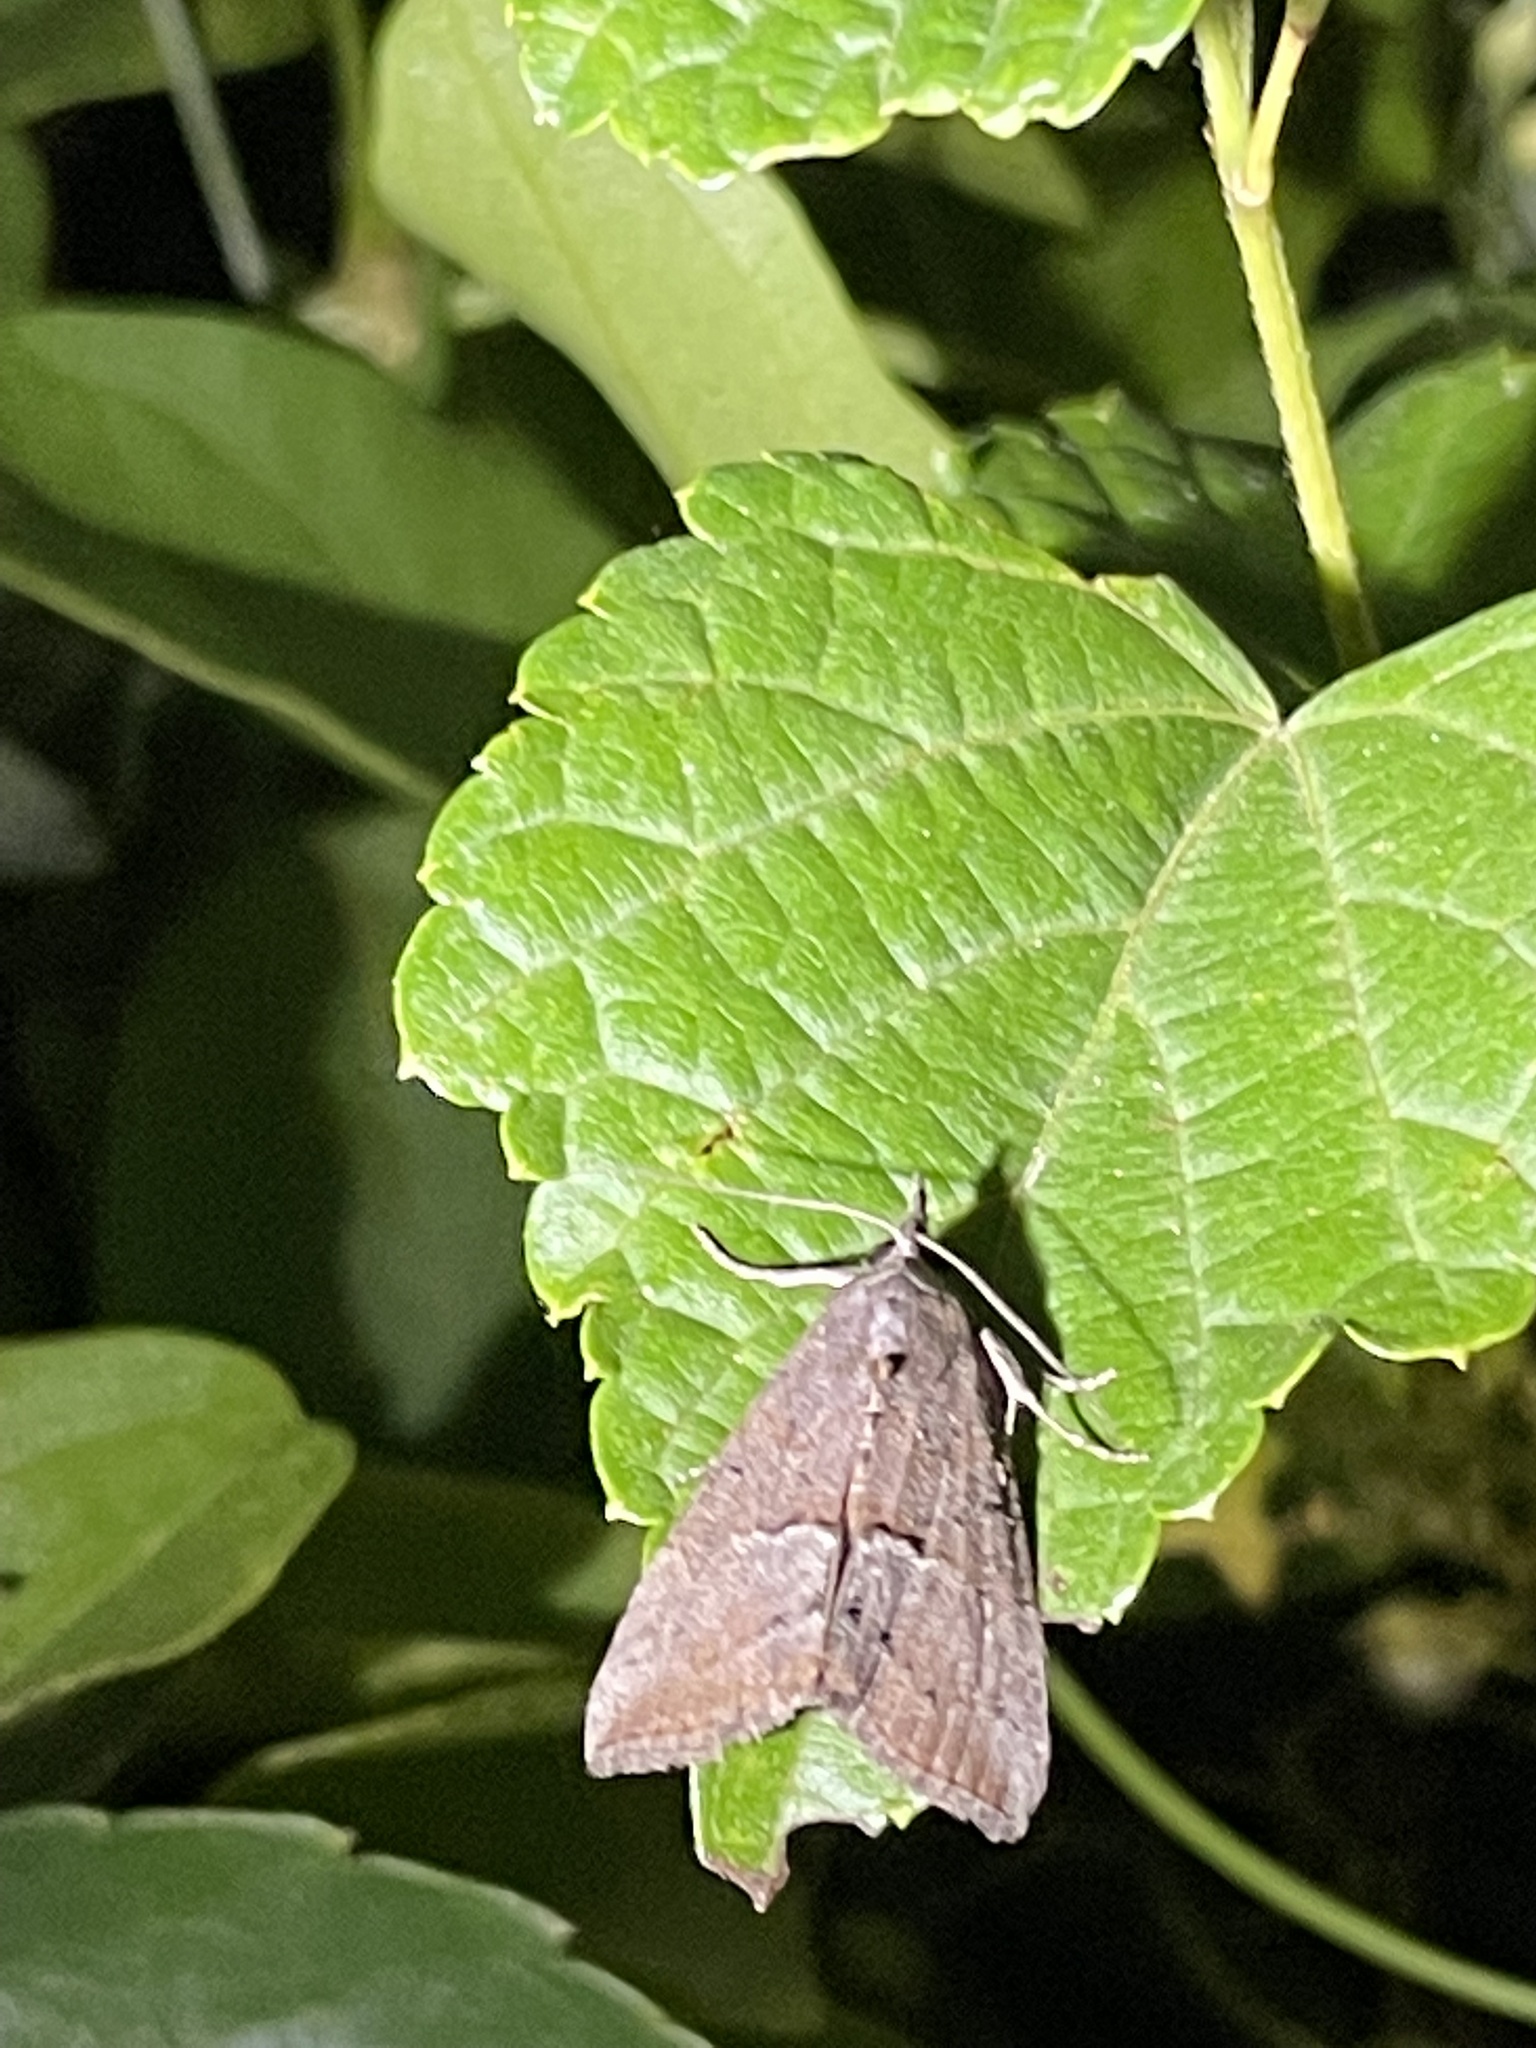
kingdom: Animalia
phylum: Arthropoda
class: Insecta
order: Lepidoptera
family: Erebidae
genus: Hypena
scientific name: Hypena scabra
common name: Green cloverworm
